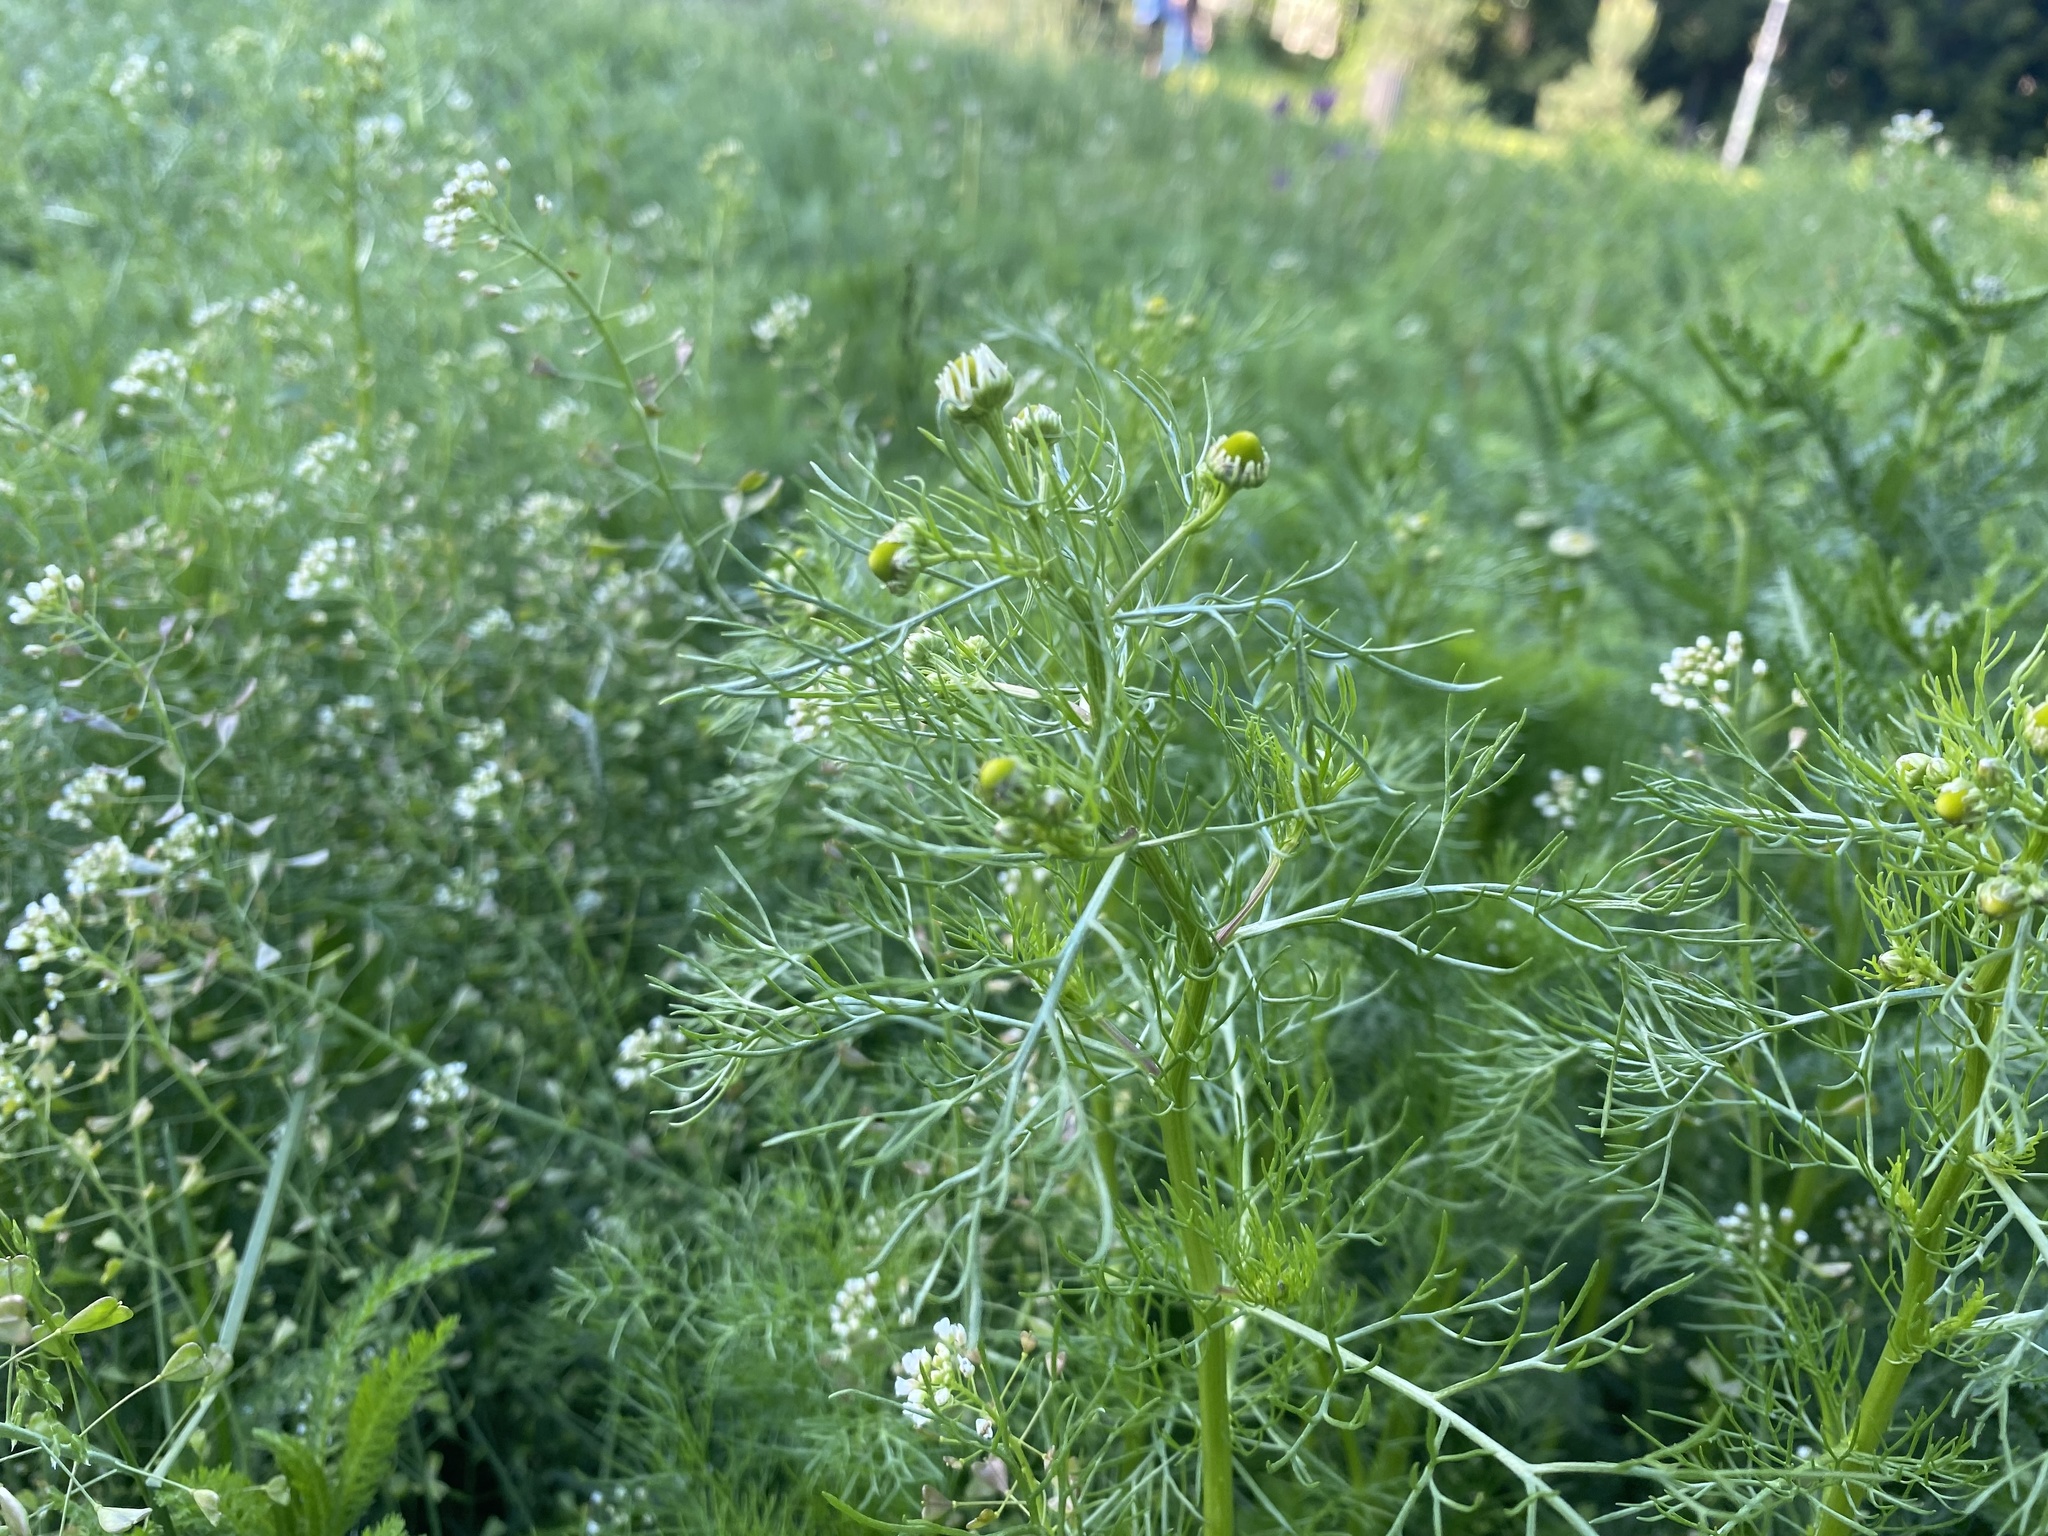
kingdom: Plantae
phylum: Tracheophyta
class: Magnoliopsida
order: Asterales
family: Asteraceae
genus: Tripleurospermum
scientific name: Tripleurospermum inodorum
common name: Scentless mayweed
